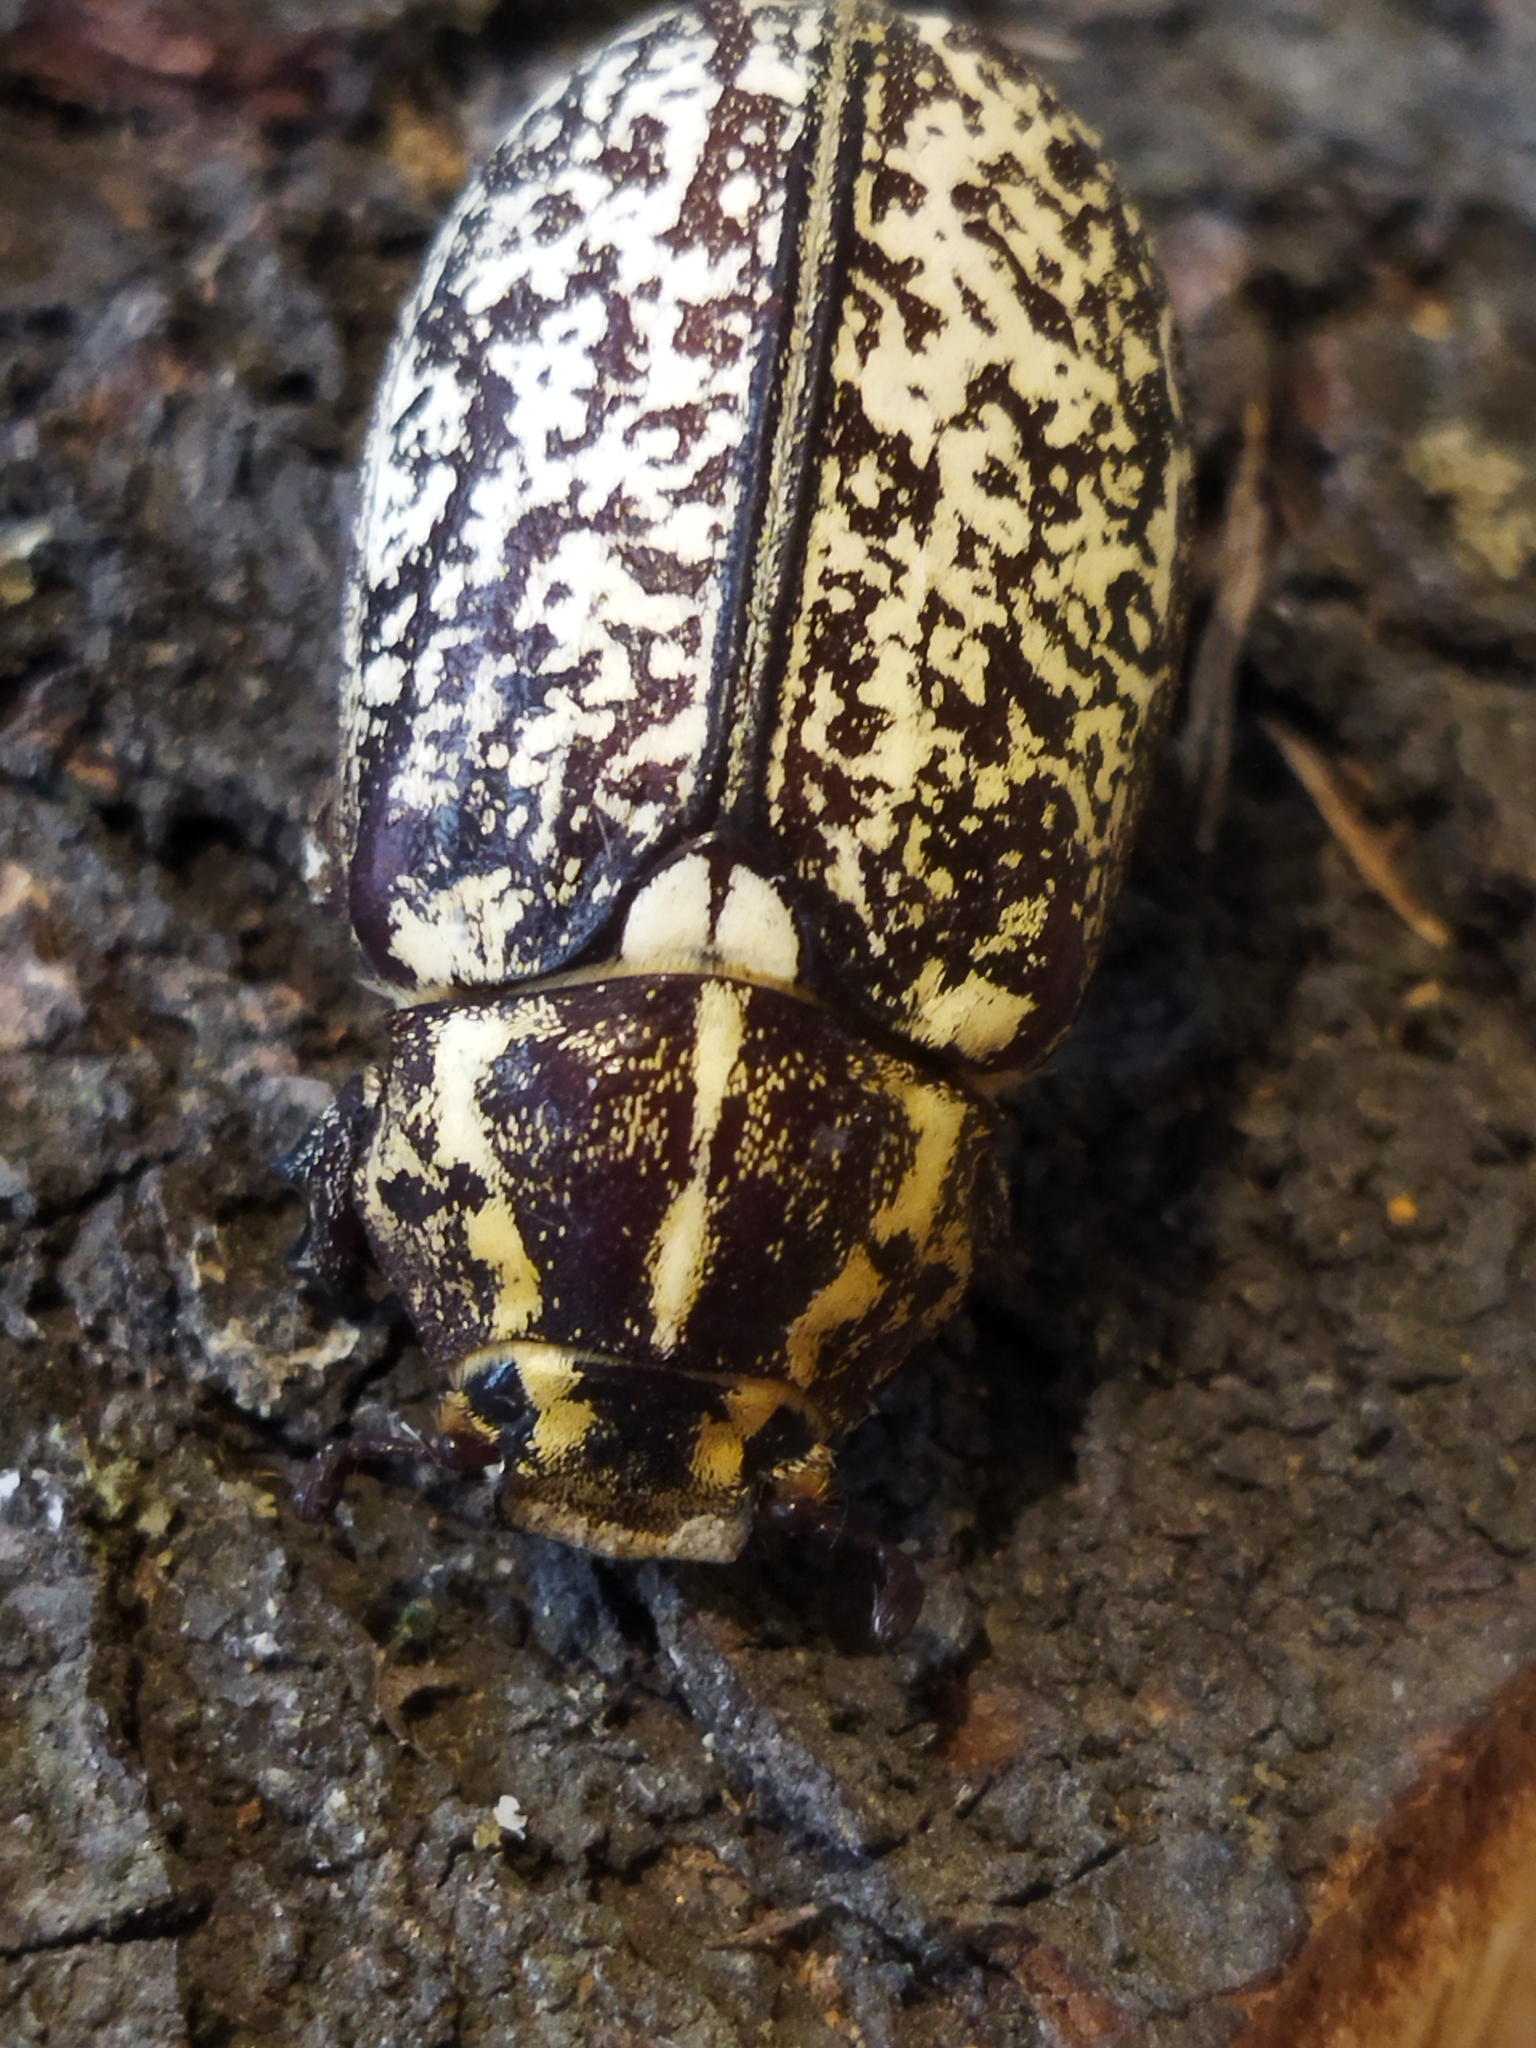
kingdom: Animalia
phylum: Arthropoda
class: Insecta
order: Coleoptera
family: Scarabaeidae
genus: Polyphylla
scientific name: Polyphylla fullo
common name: Pine chafer
